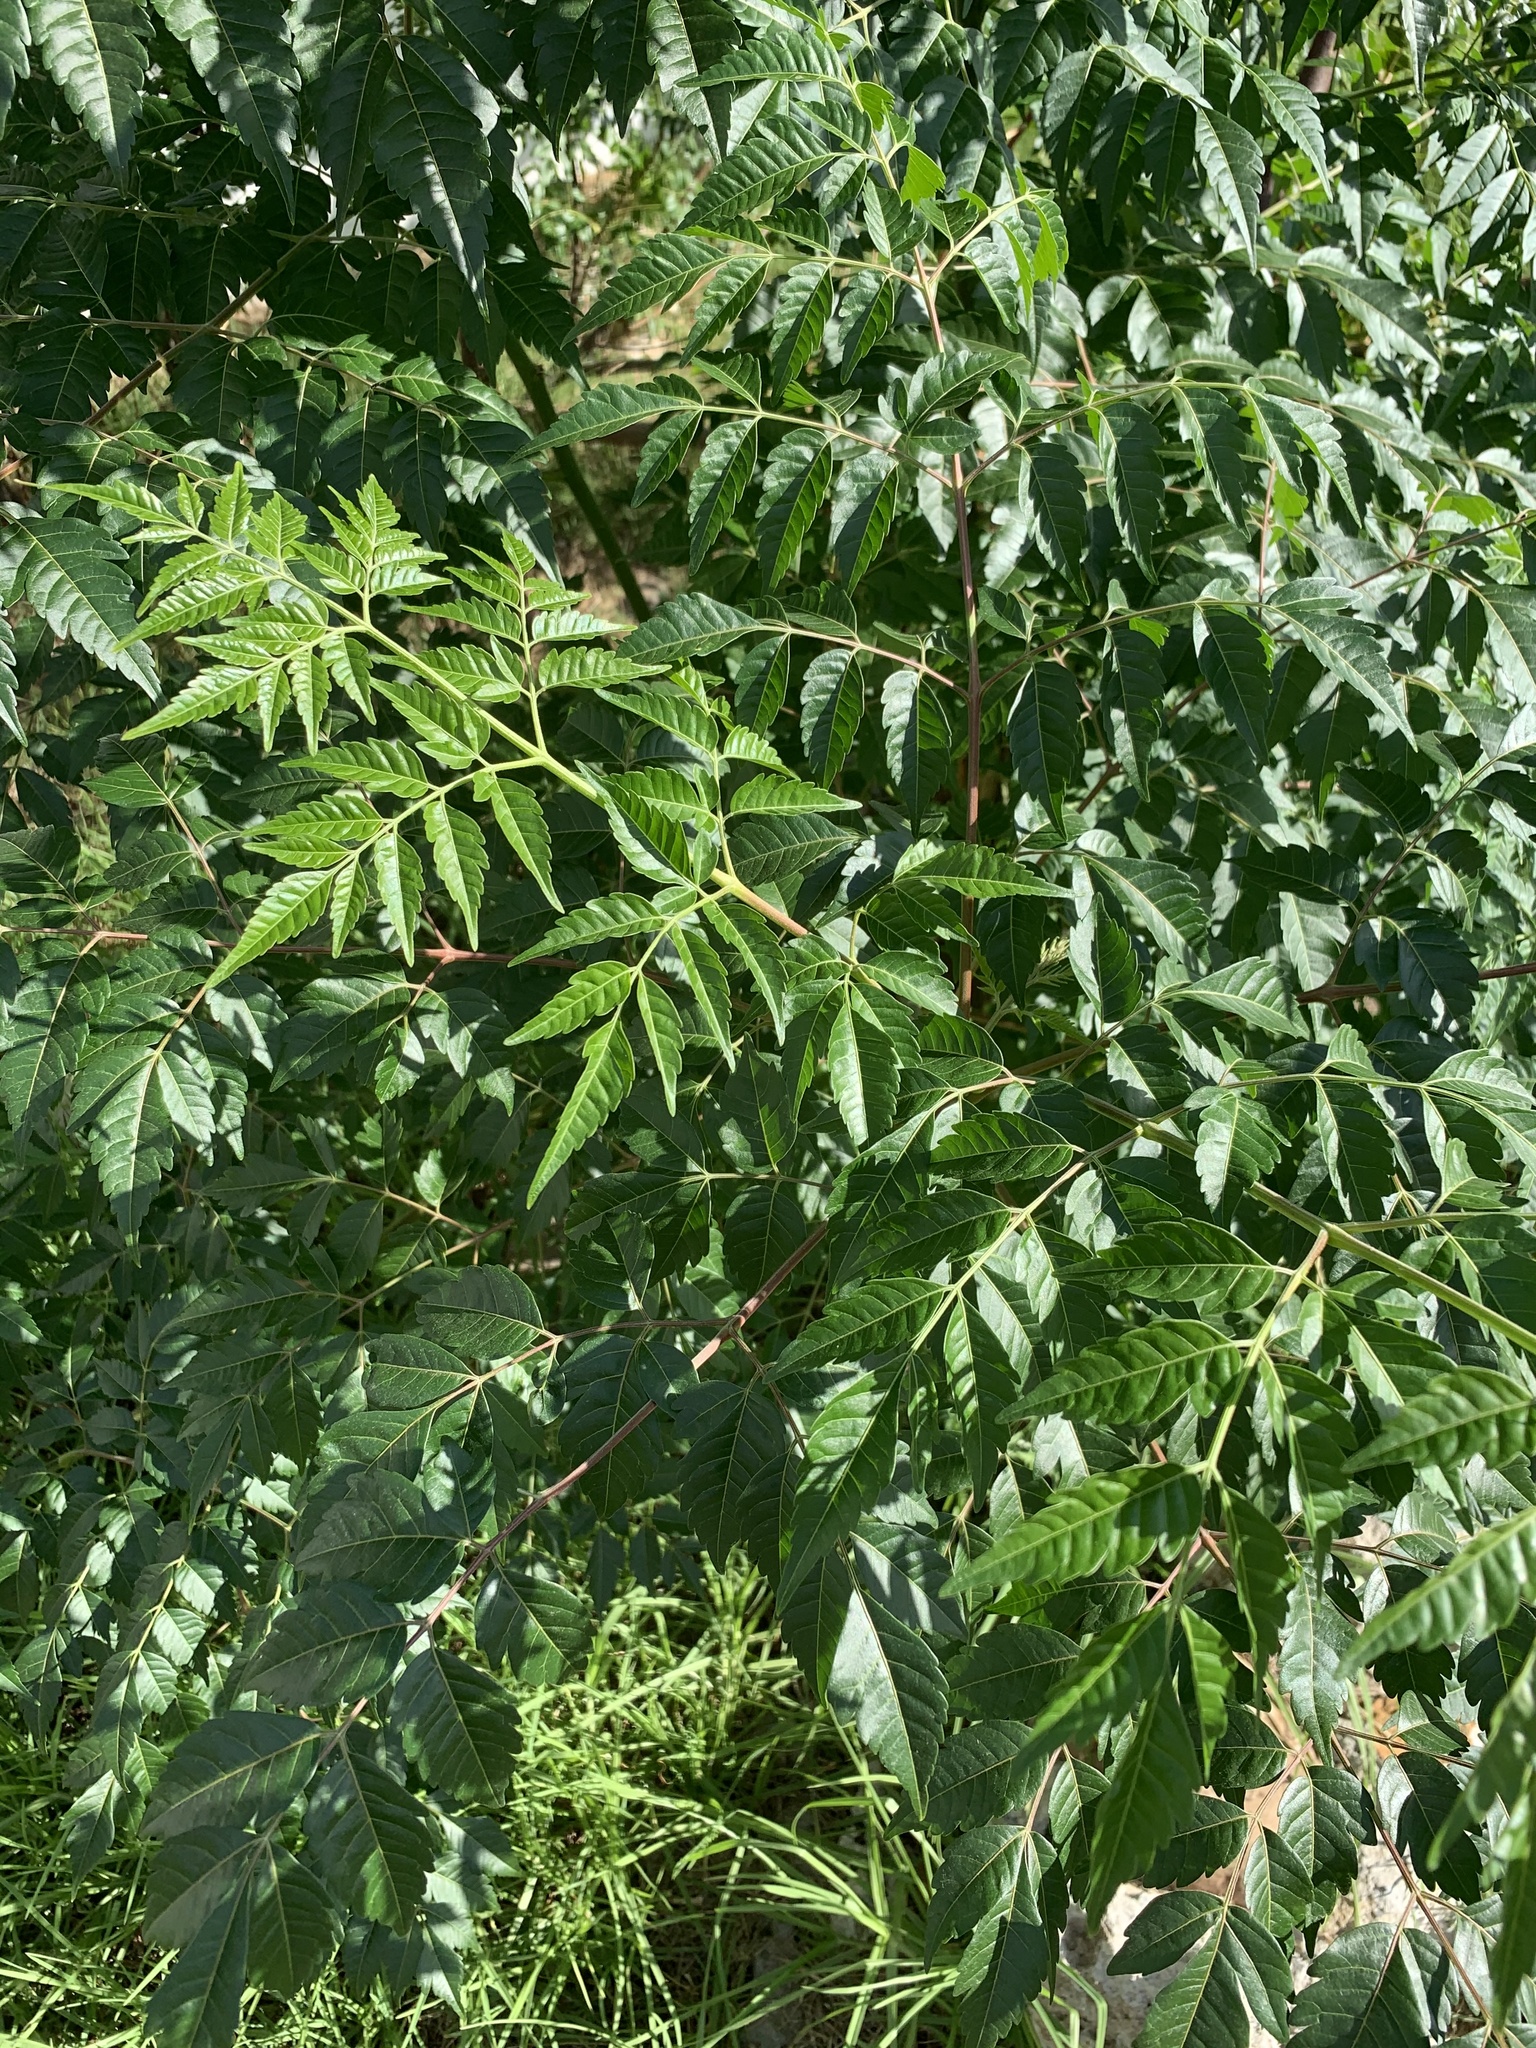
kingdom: Plantae
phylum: Tracheophyta
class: Magnoliopsida
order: Sapindales
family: Meliaceae
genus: Melia
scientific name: Melia azedarach
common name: Chinaberrytree
